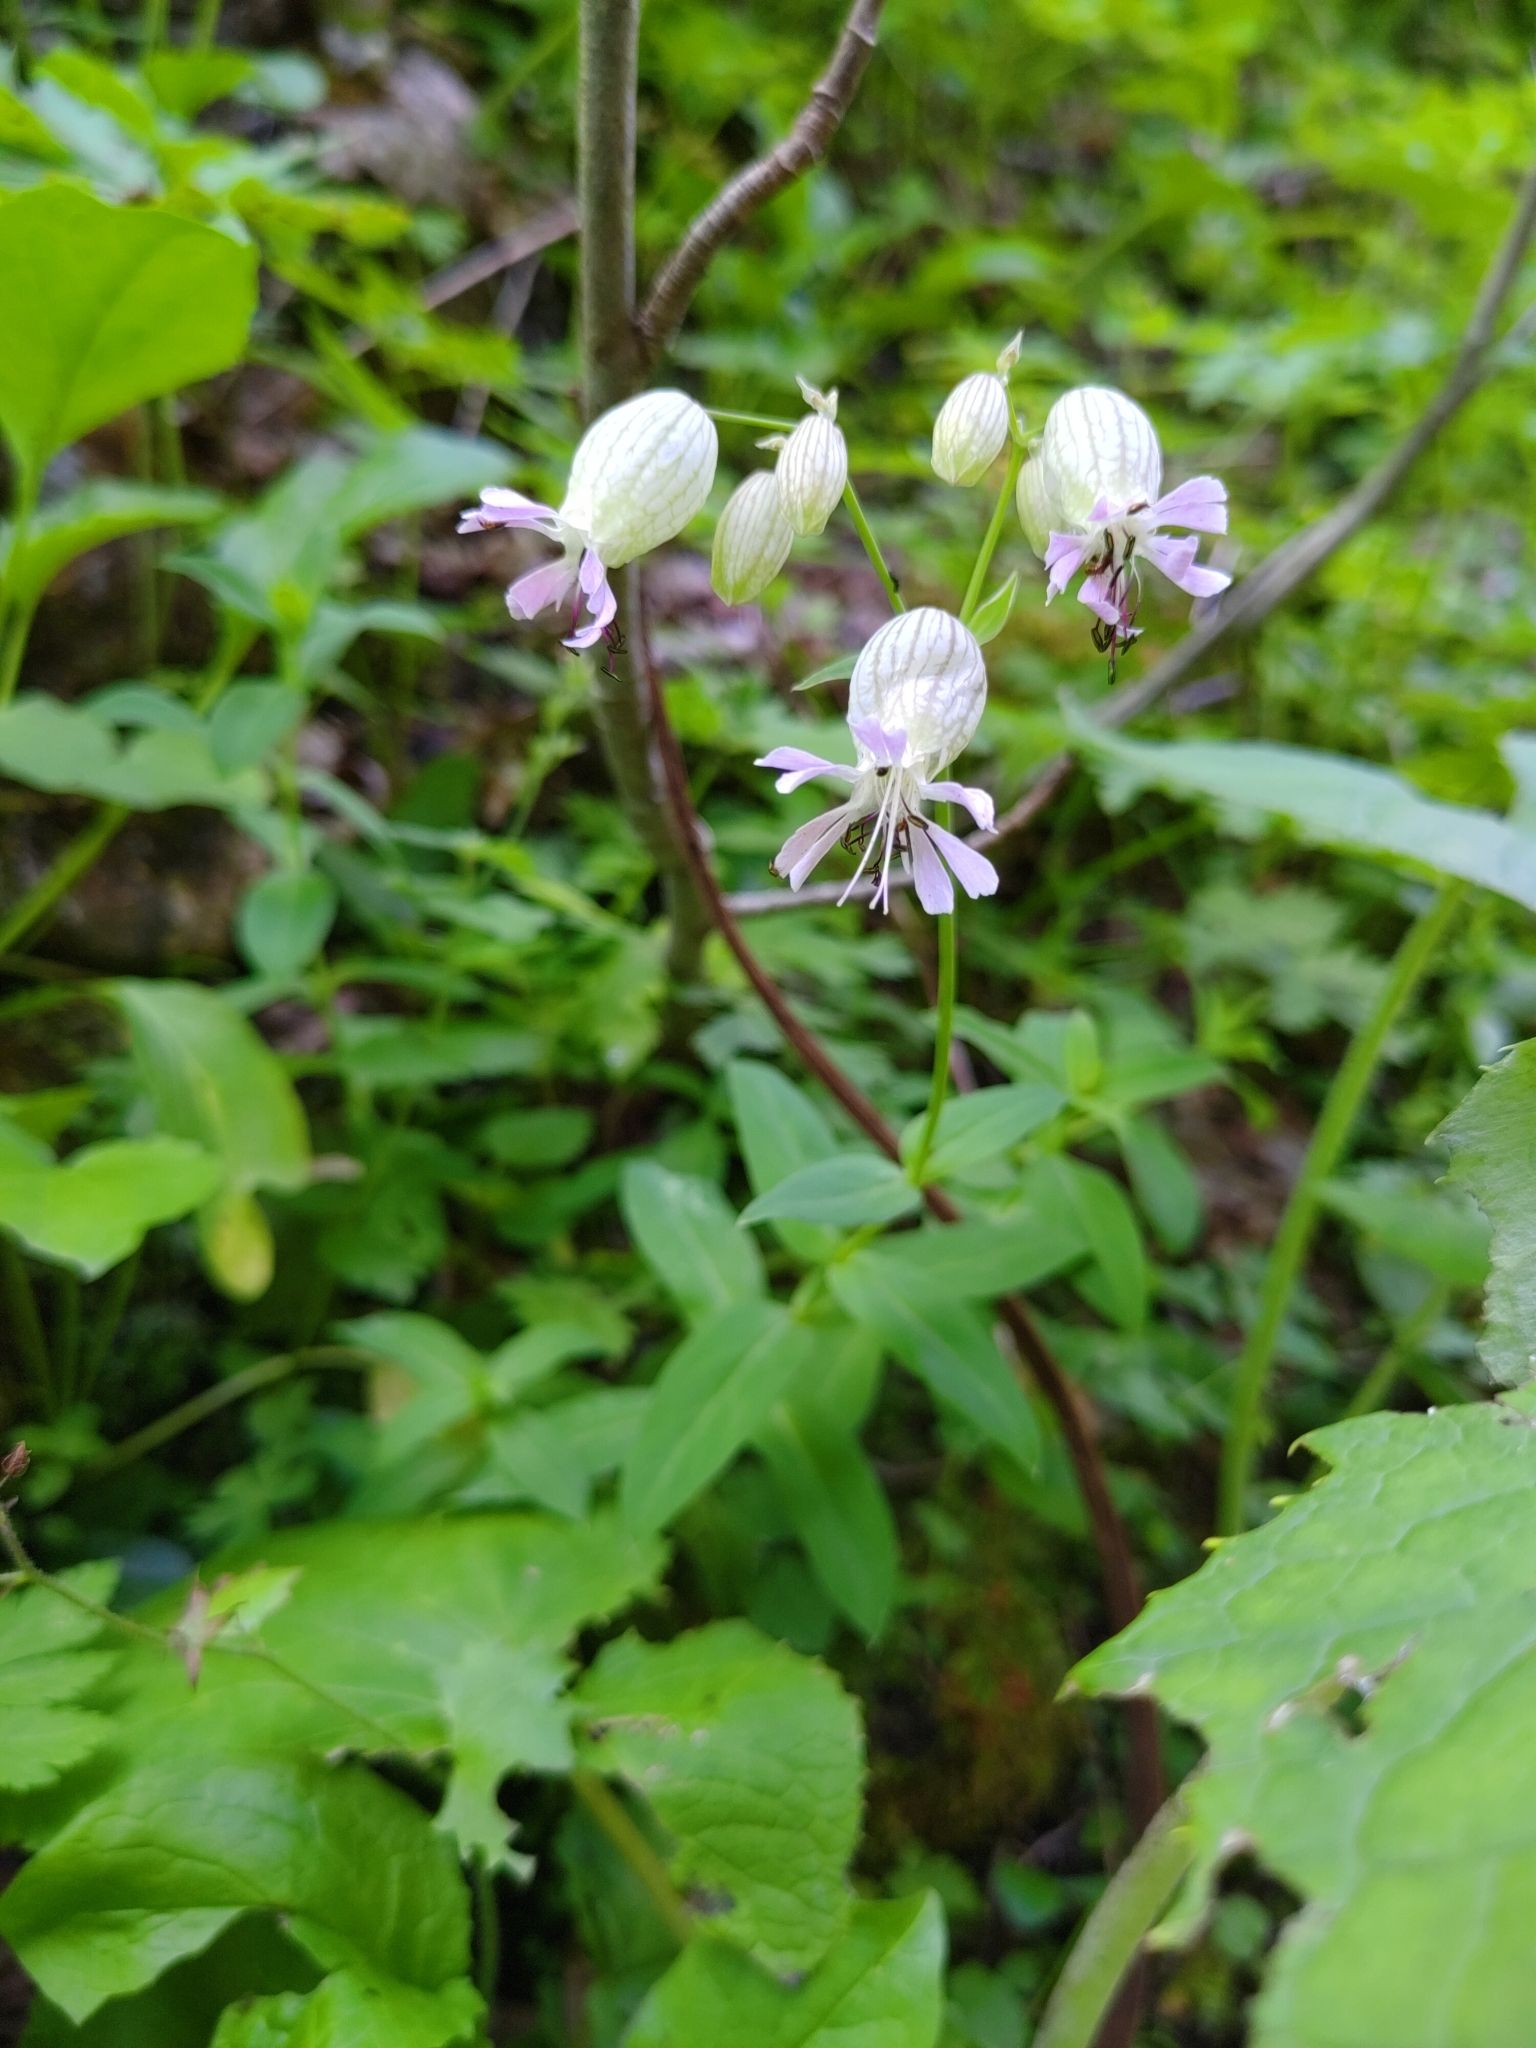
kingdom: Plantae
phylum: Tracheophyta
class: Magnoliopsida
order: Caryophyllales
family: Caryophyllaceae
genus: Silene
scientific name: Silene vulgaris
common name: Bladder campion
